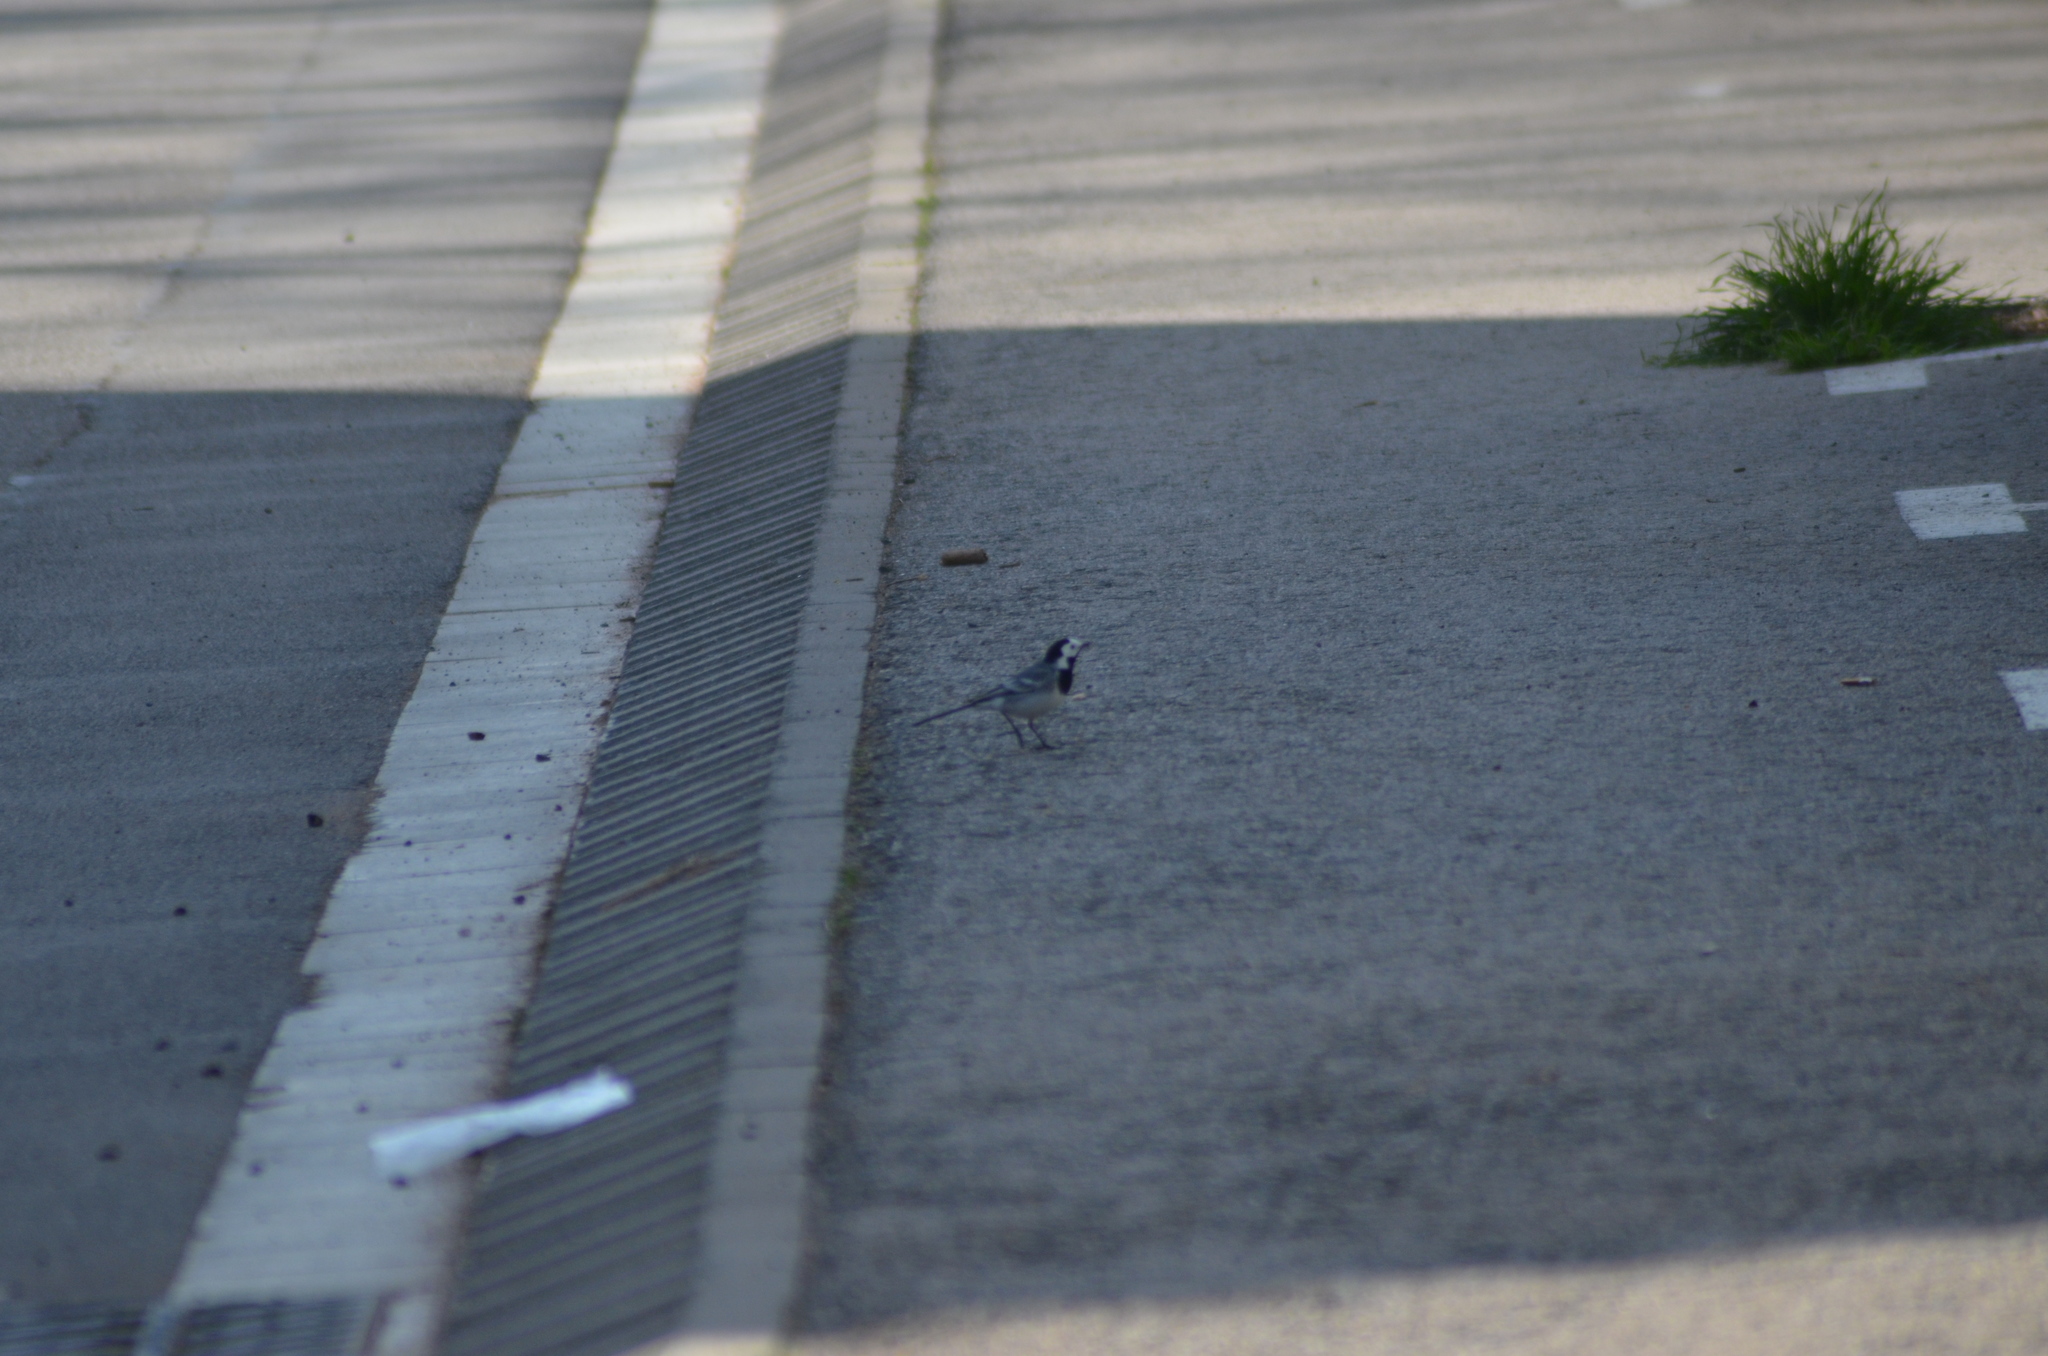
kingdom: Animalia
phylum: Chordata
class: Aves
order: Passeriformes
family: Motacillidae
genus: Motacilla
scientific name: Motacilla alba
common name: White wagtail
